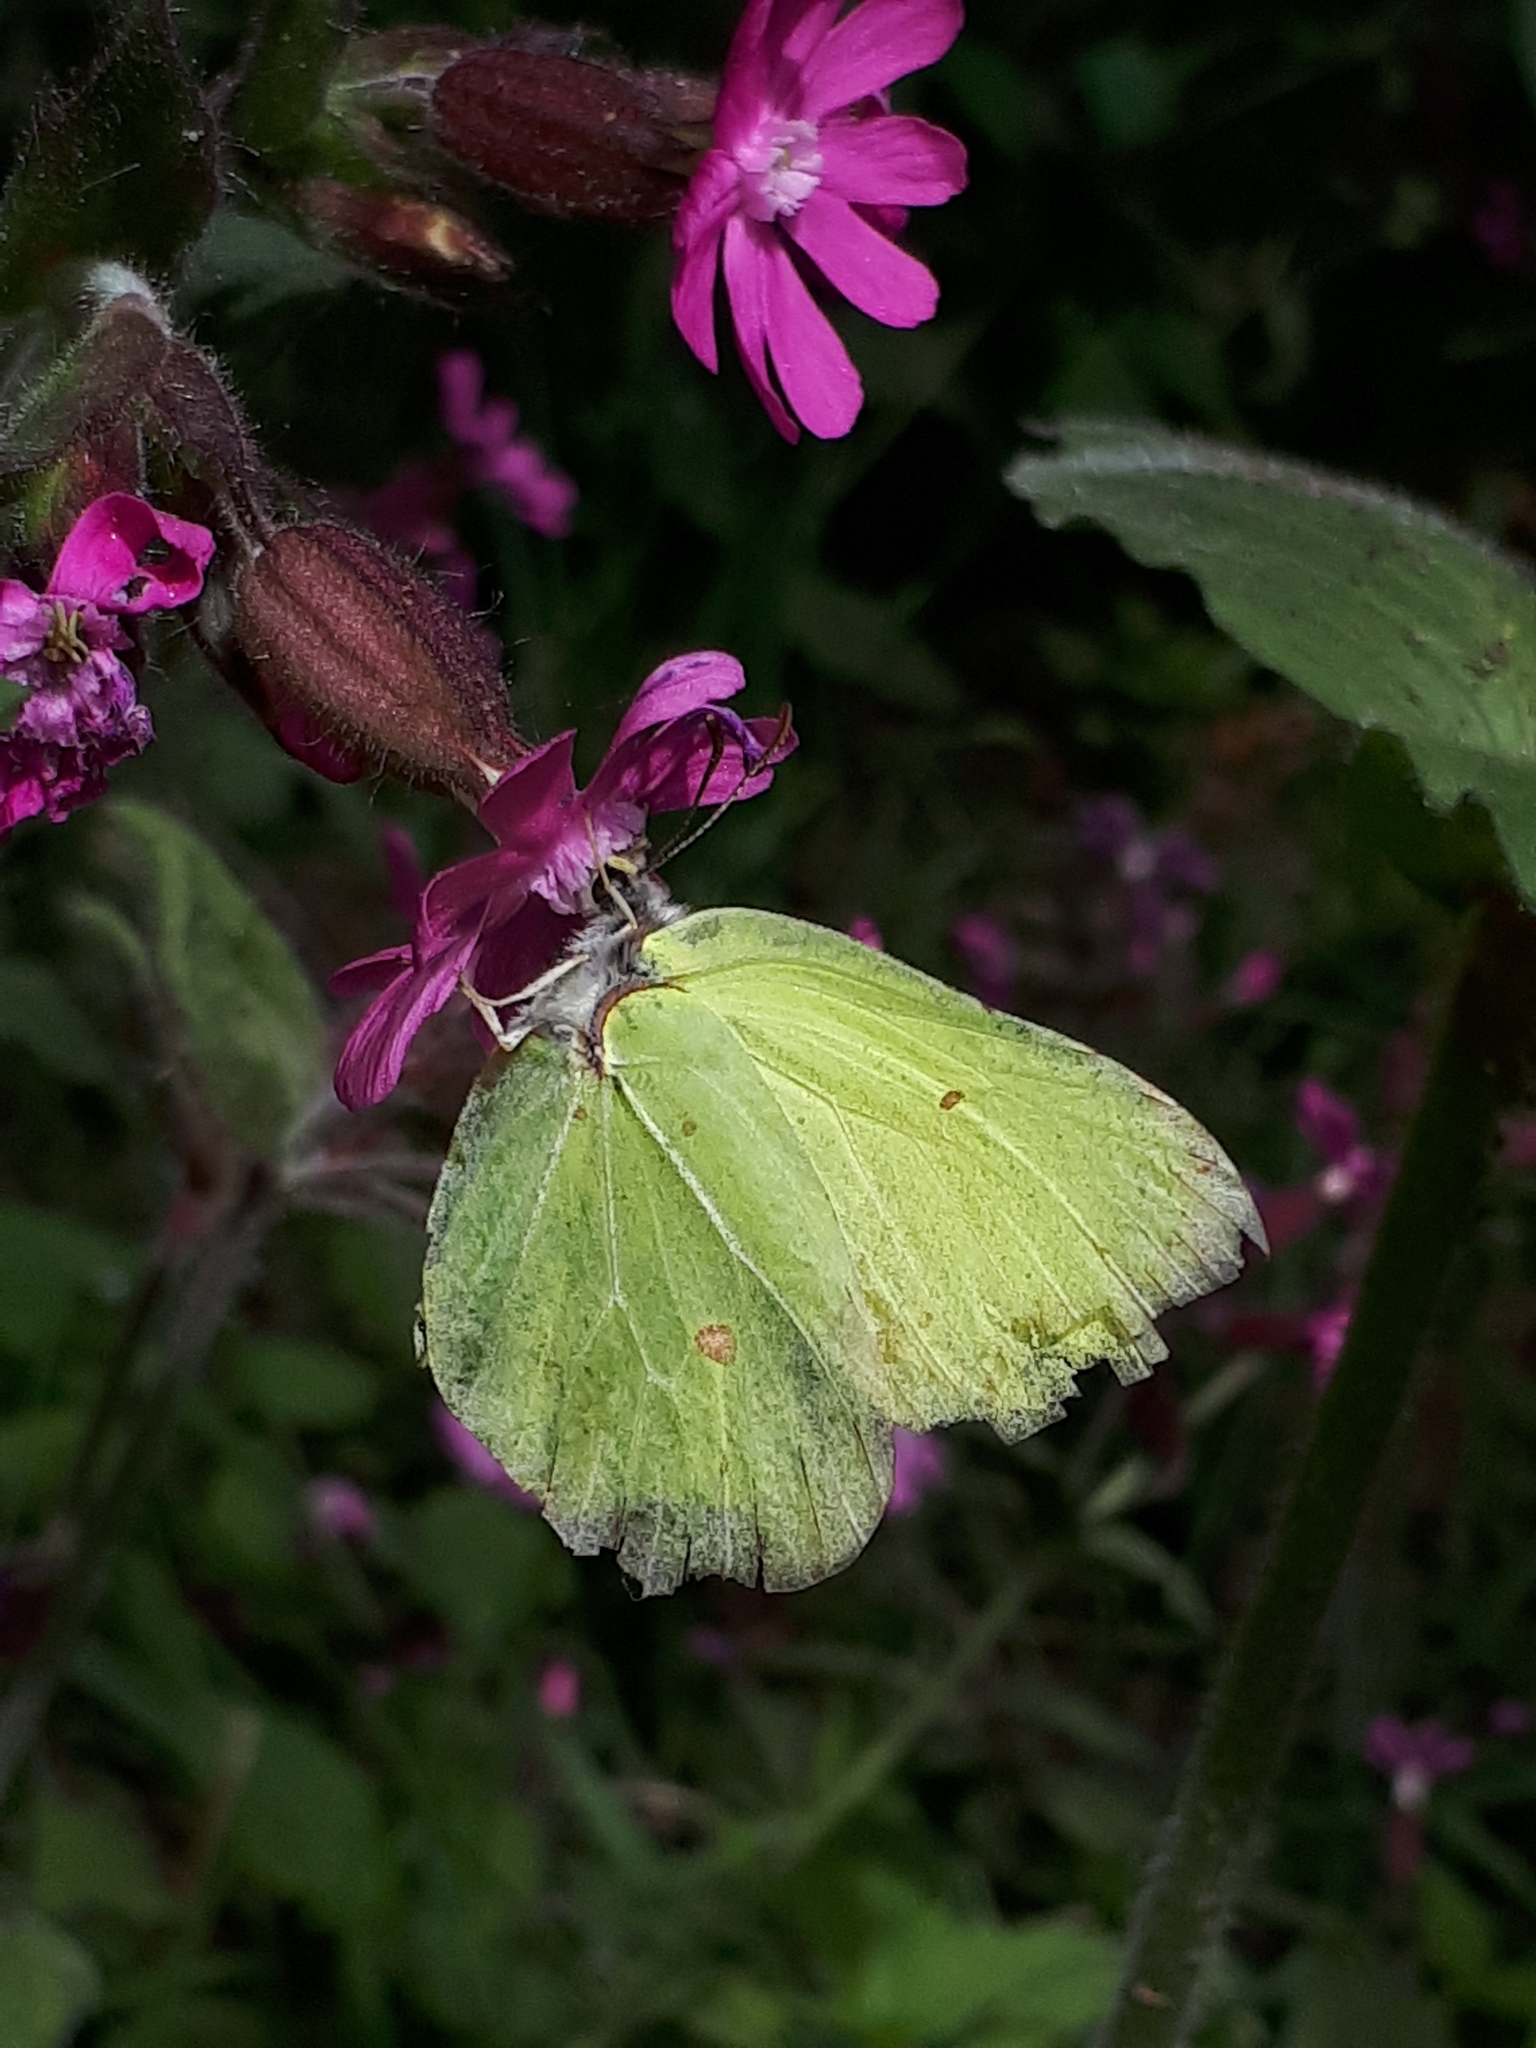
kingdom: Animalia
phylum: Arthropoda
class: Insecta
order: Lepidoptera
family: Pieridae
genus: Gonepteryx
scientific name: Gonepteryx rhamni
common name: Brimstone
